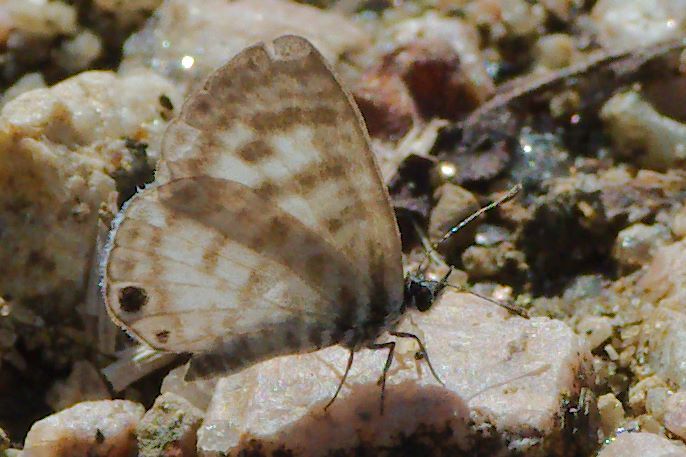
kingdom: Animalia
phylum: Arthropoda
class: Insecta
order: Lepidoptera
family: Lycaenidae
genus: Leptotes
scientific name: Leptotes cassius
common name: Cassius blue
